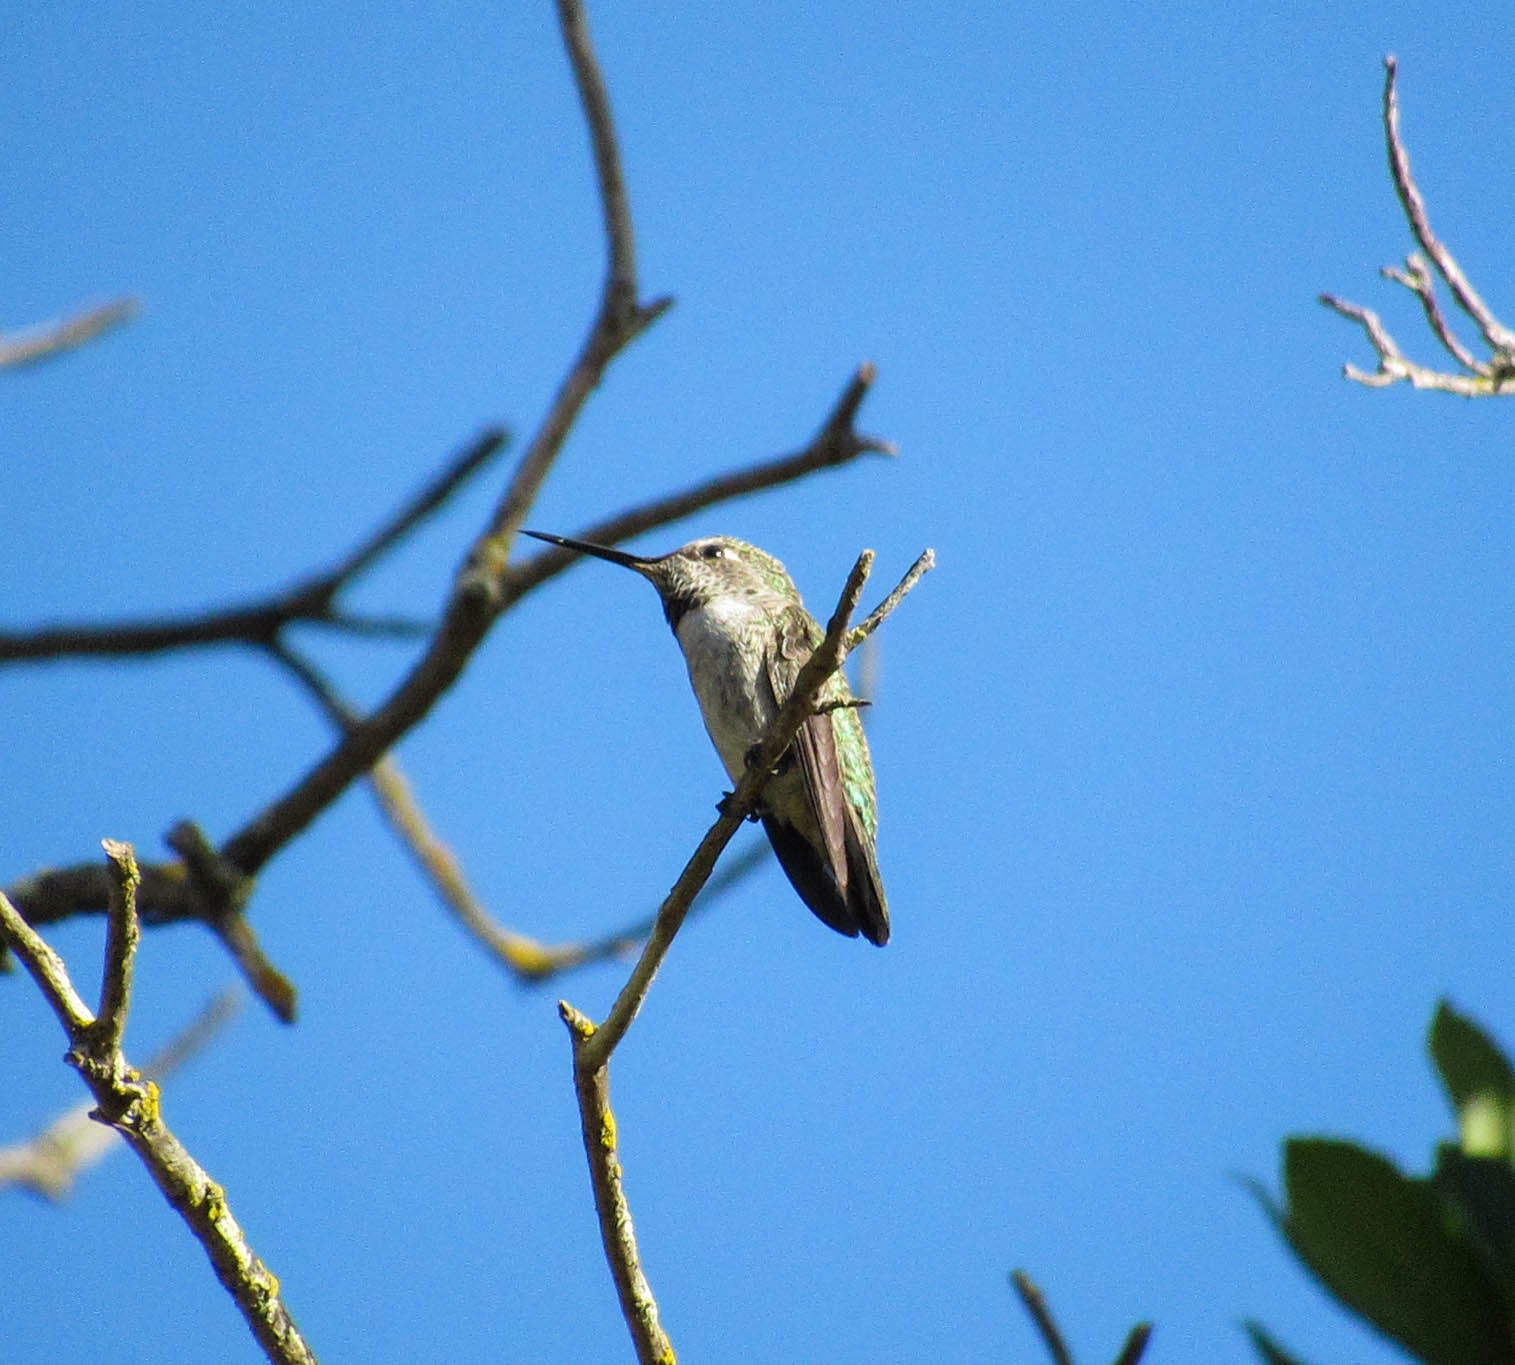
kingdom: Animalia
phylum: Chordata
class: Aves
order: Apodiformes
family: Trochilidae
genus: Calypte
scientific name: Calypte anna
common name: Anna's hummingbird
